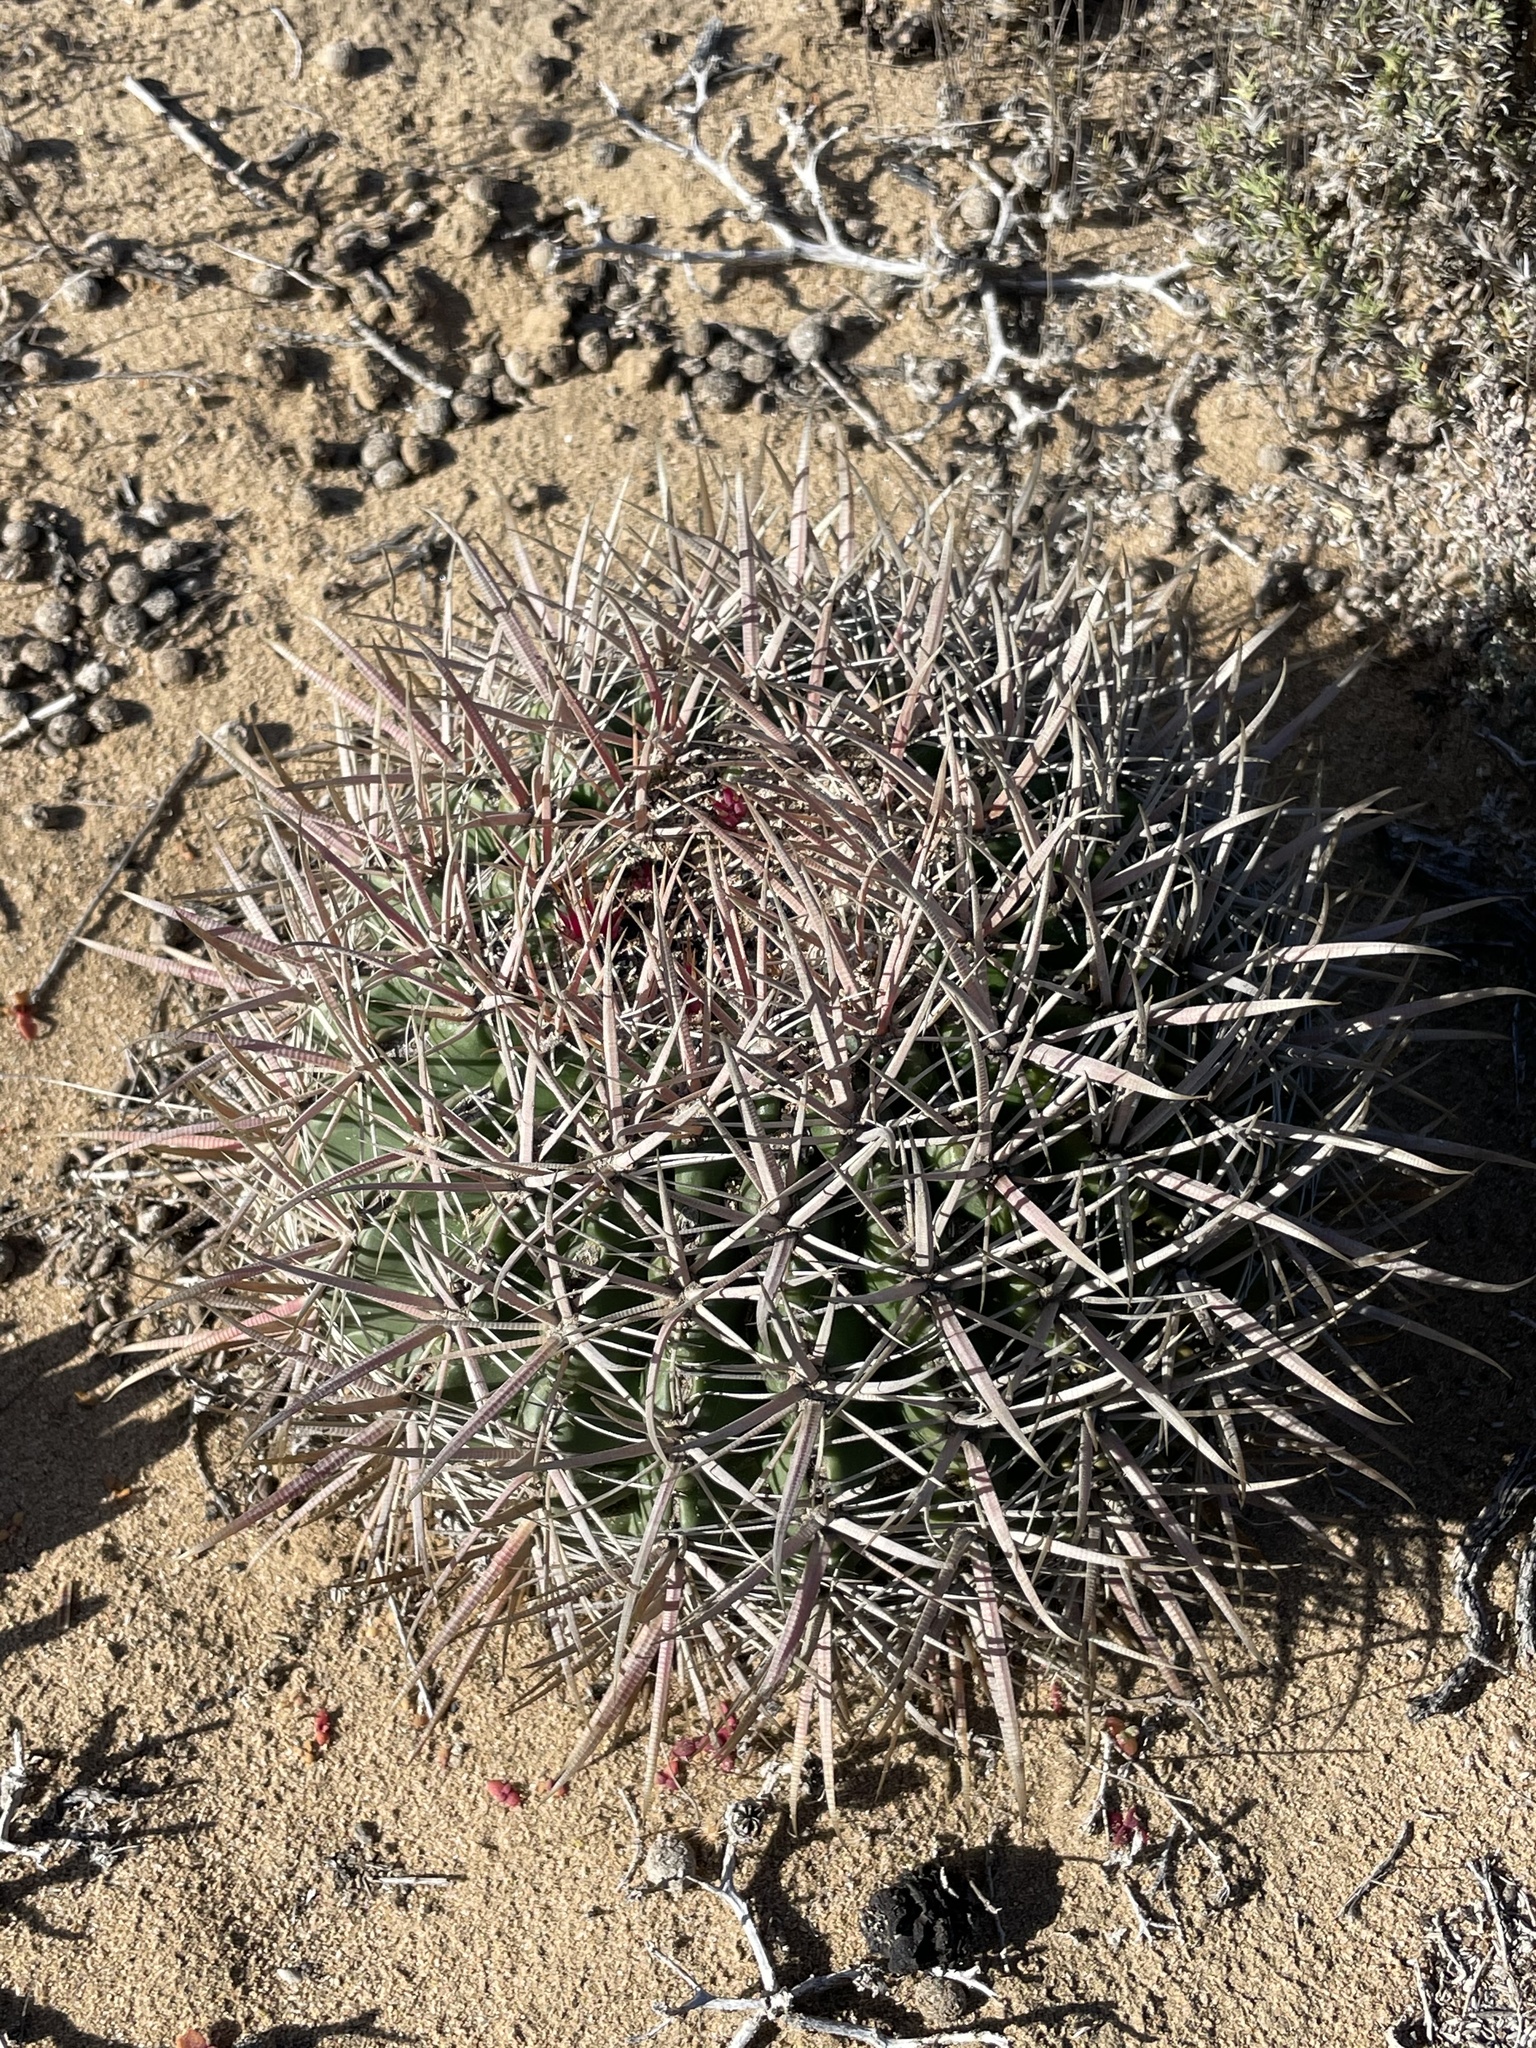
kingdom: Plantae
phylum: Tracheophyta
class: Magnoliopsida
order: Caryophyllales
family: Cactaceae
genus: Ferocactus
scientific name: Ferocactus fordii
